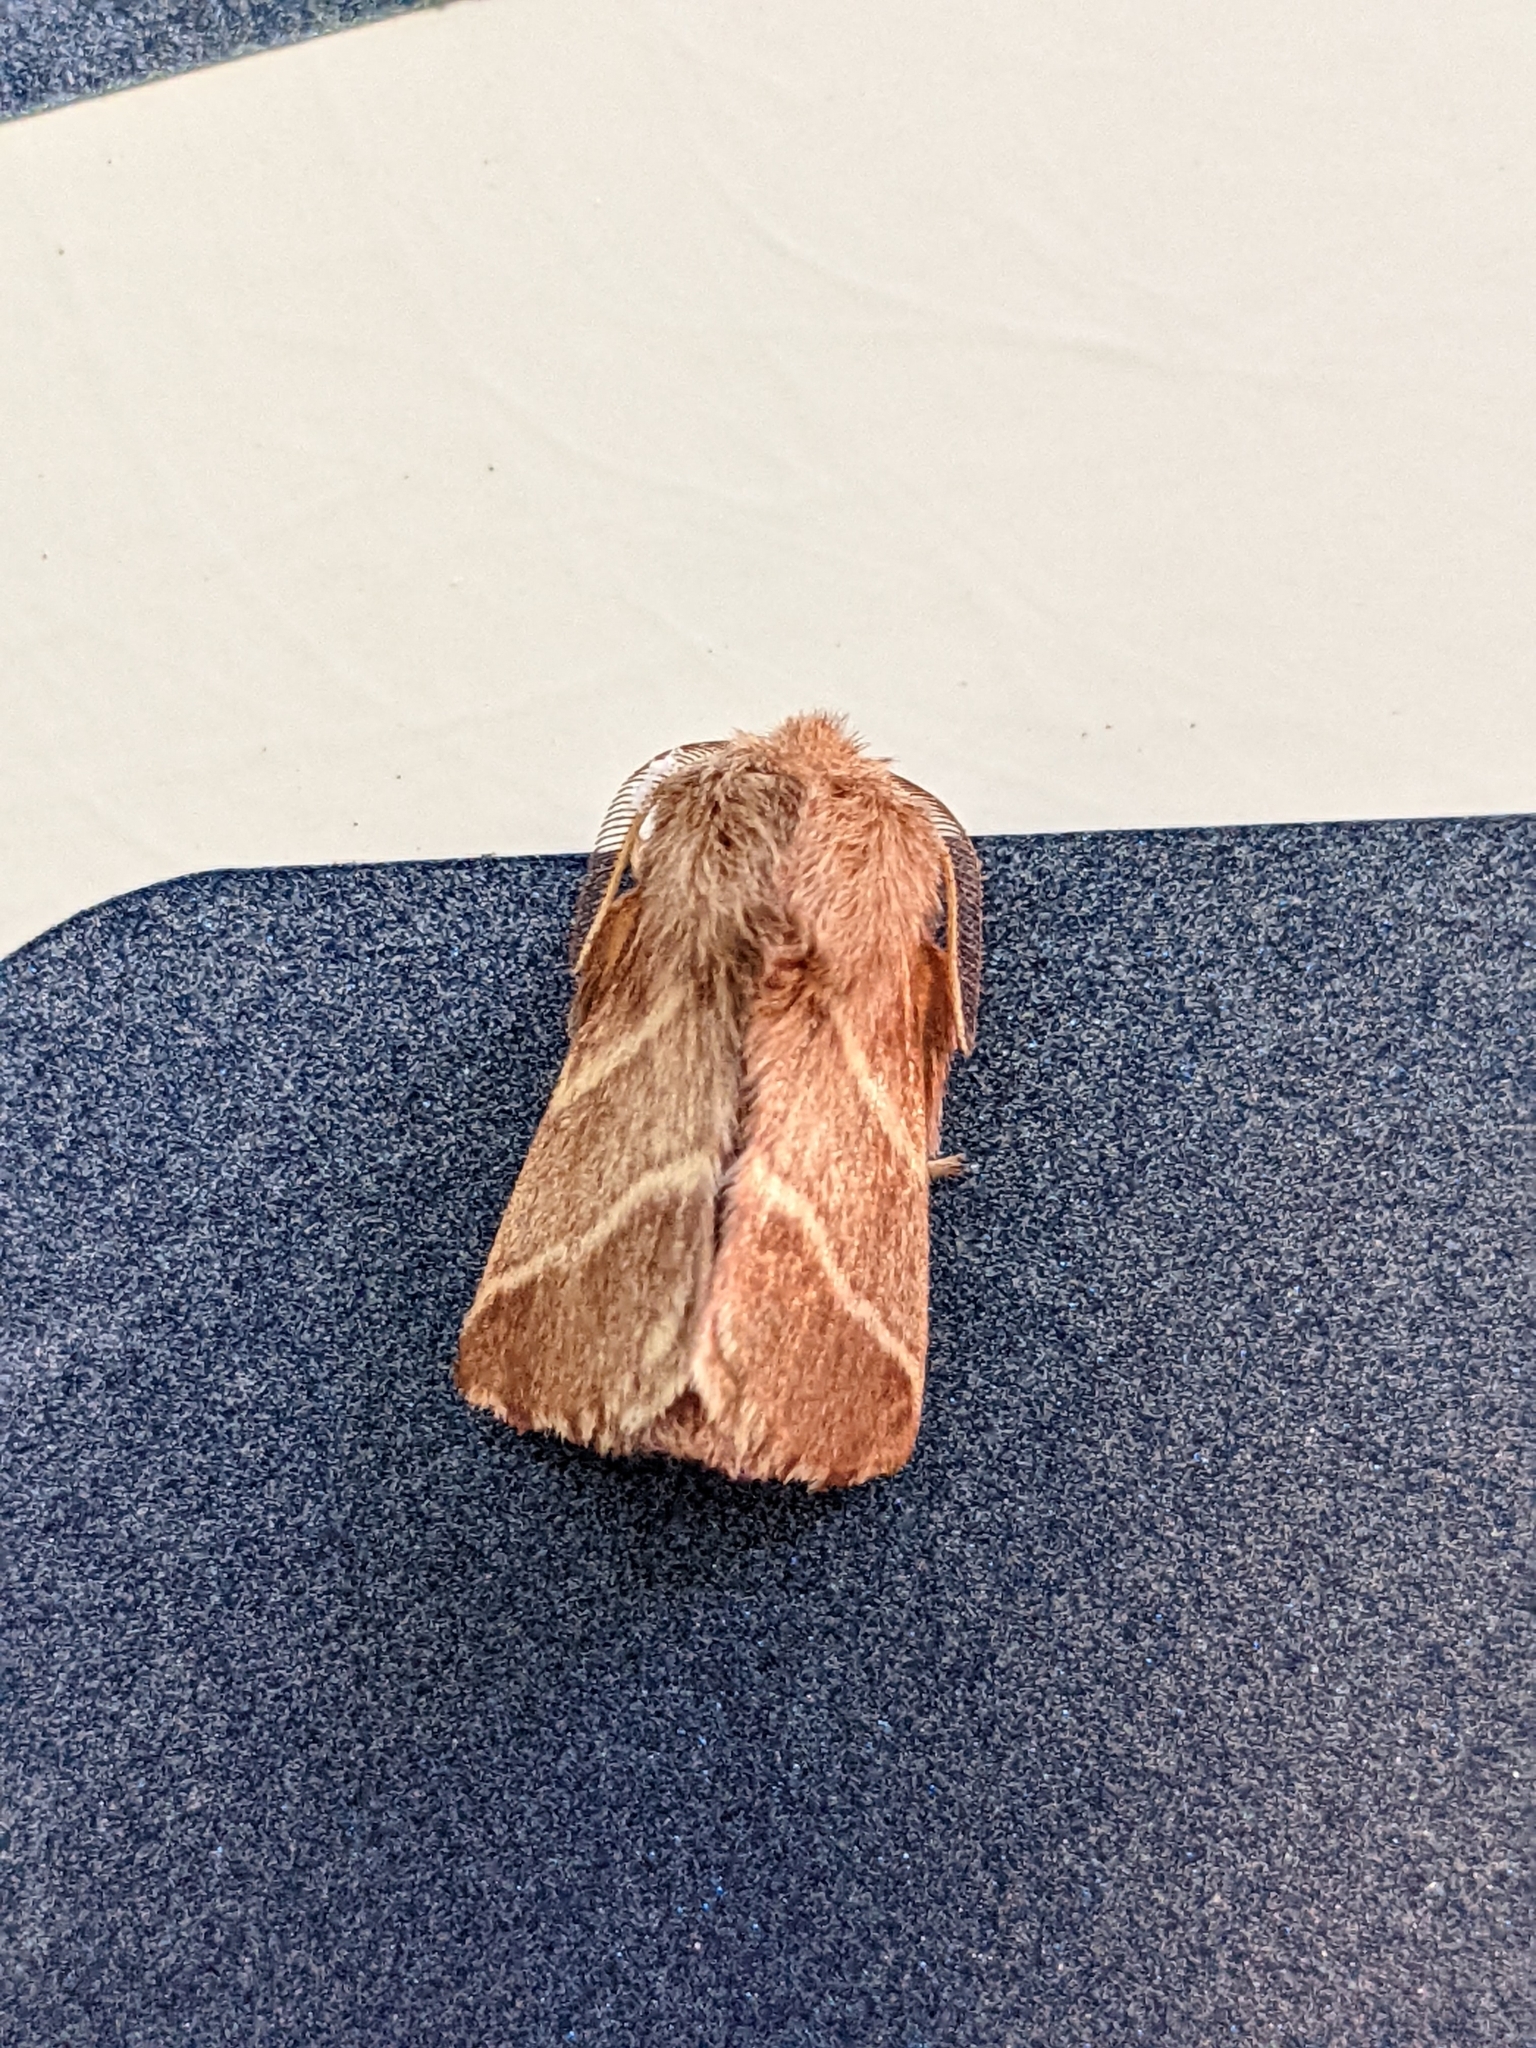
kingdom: Animalia
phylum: Arthropoda
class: Insecta
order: Lepidoptera
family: Lasiocampidae
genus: Malacosoma
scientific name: Malacosoma americana
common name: Eastern tent caterpillar moth
